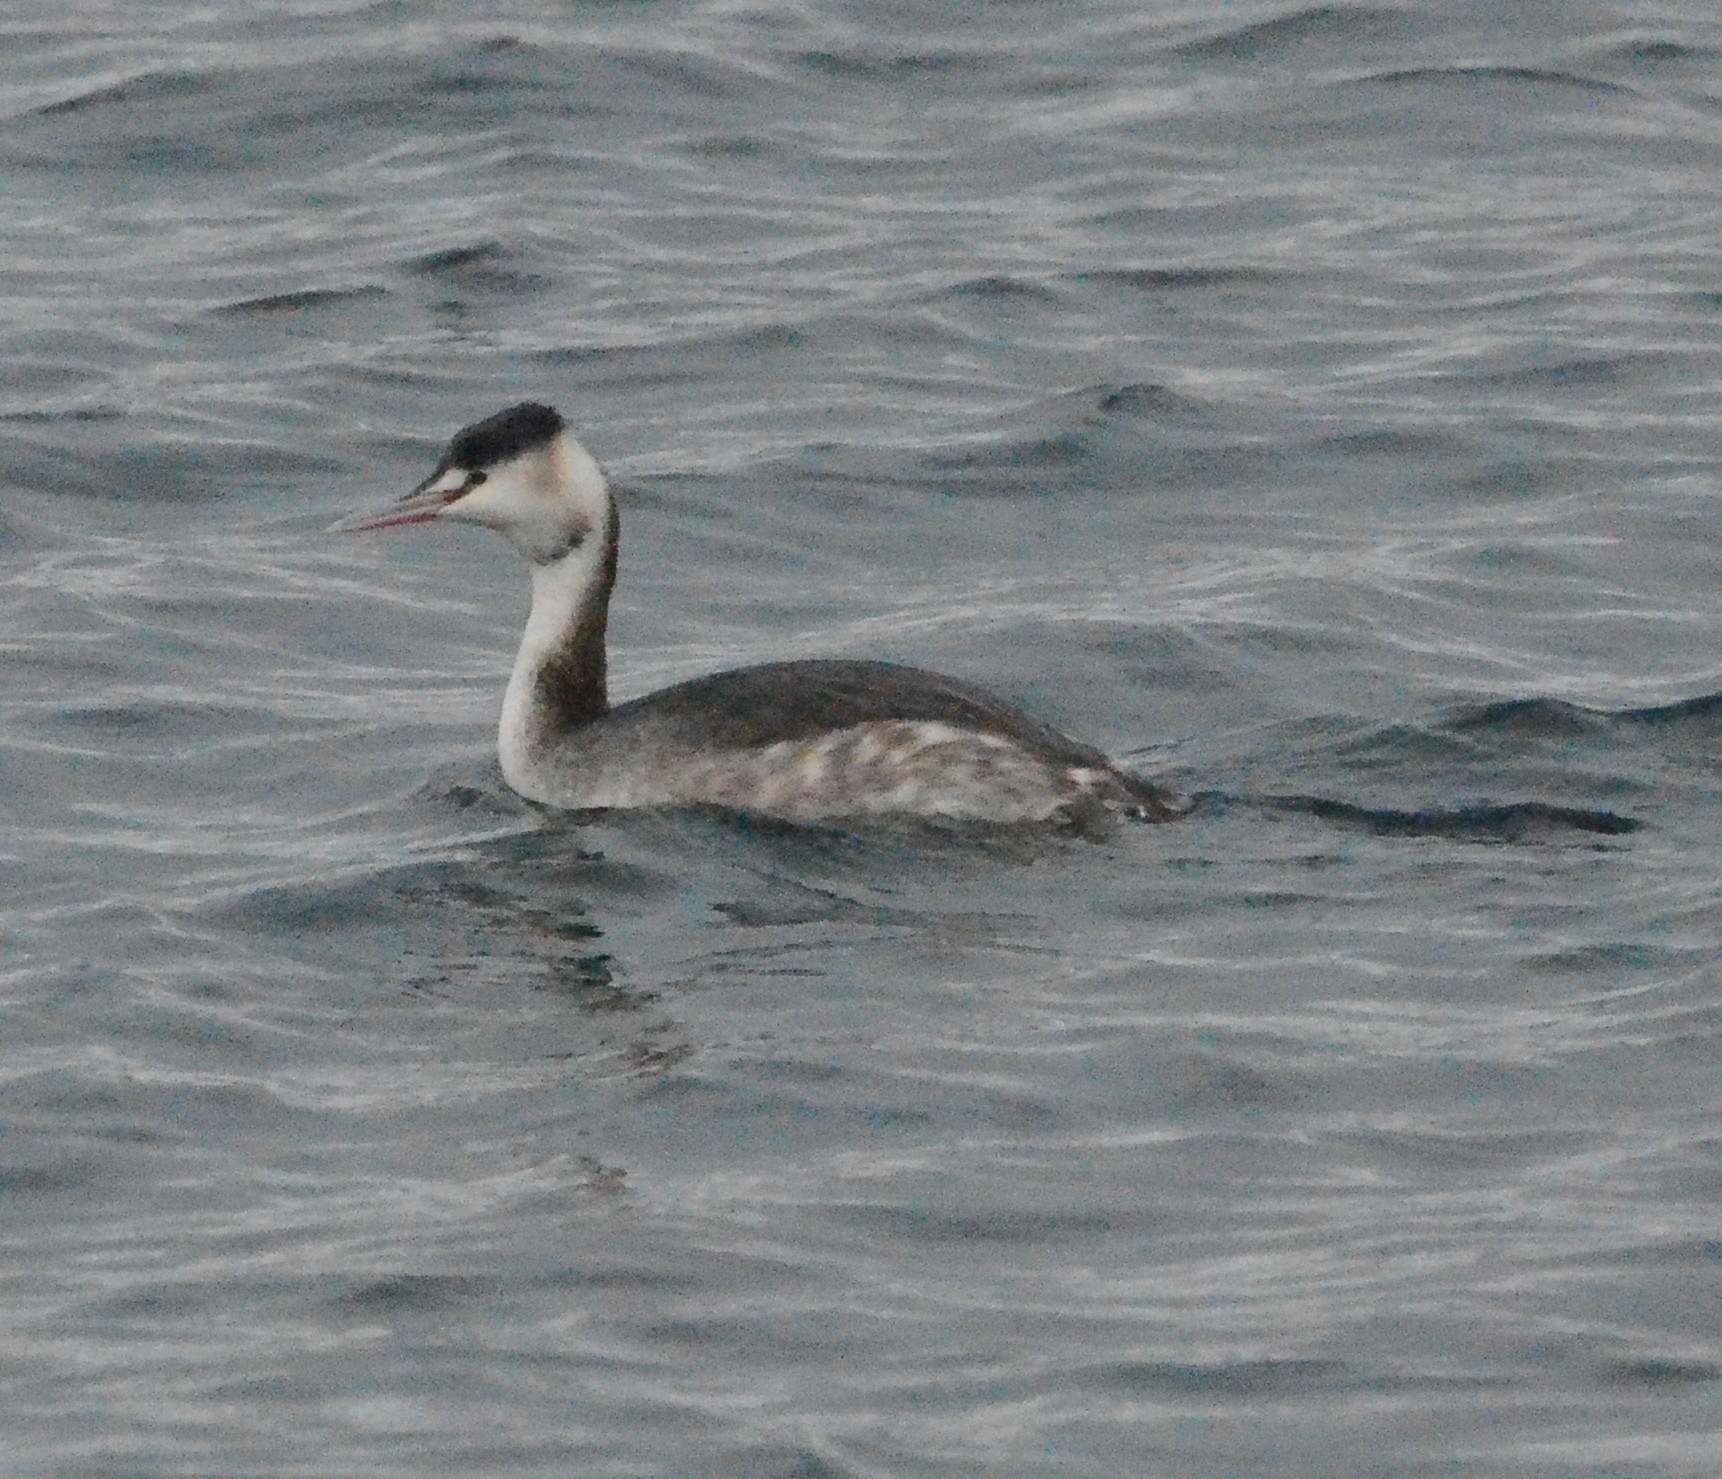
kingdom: Animalia
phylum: Chordata
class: Aves
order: Podicipediformes
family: Podicipedidae
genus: Podiceps
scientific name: Podiceps cristatus
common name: Great crested grebe
